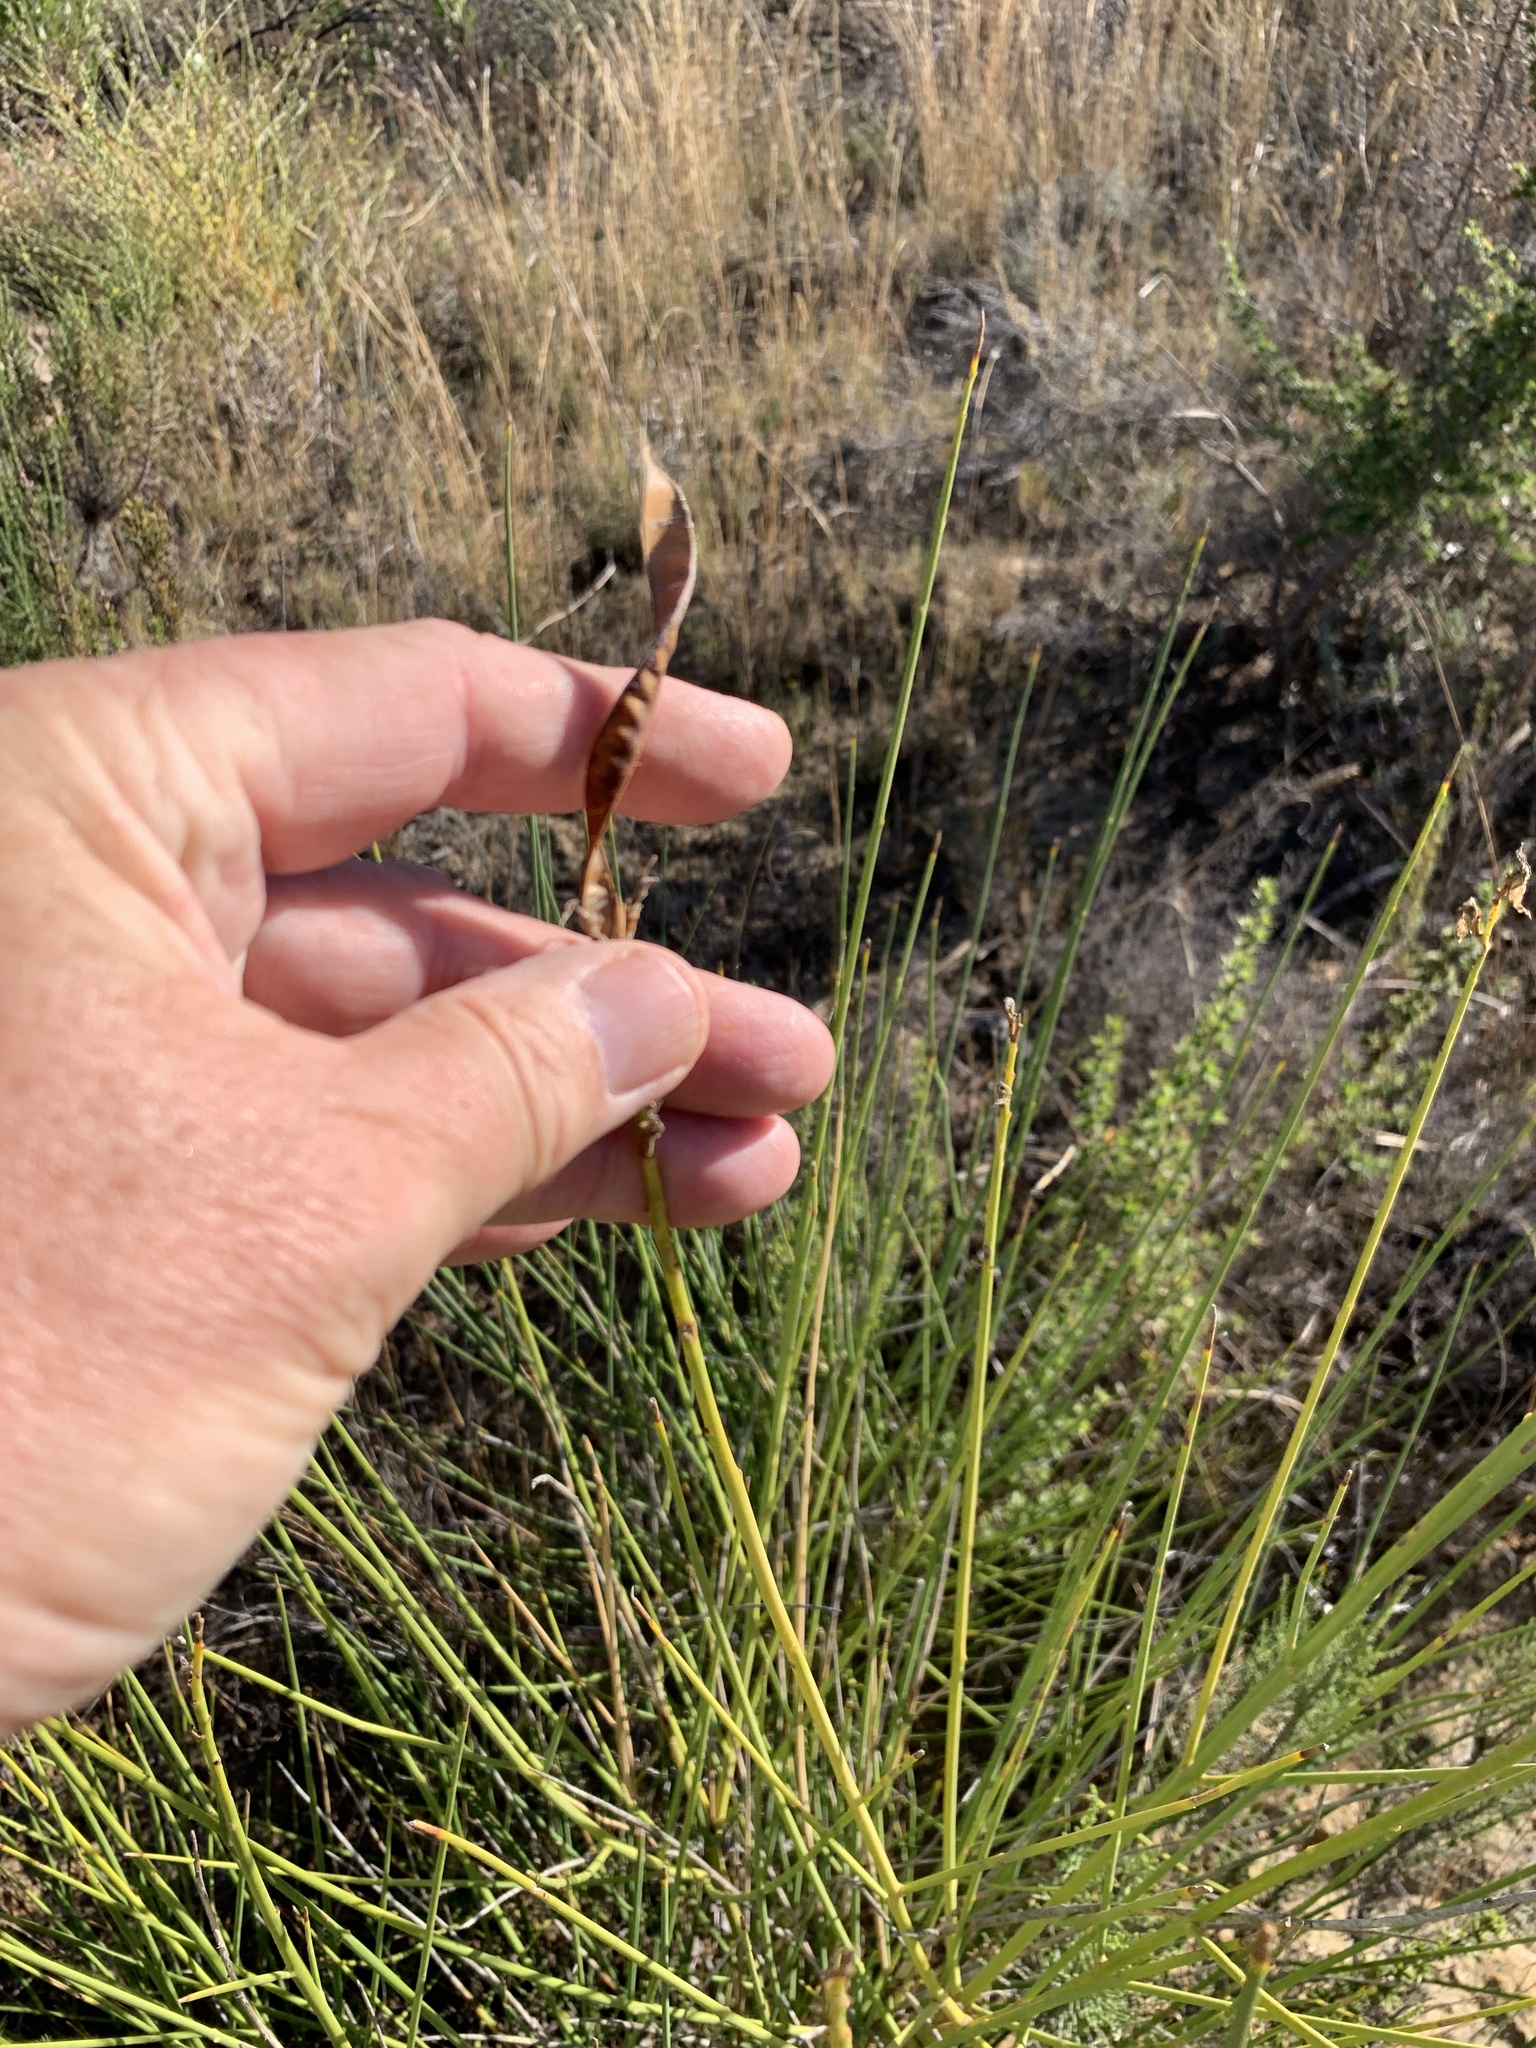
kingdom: Plantae
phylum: Tracheophyta
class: Magnoliopsida
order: Fabales
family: Fabaceae
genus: Spartium
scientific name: Spartium junceum
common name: Spanish broom
